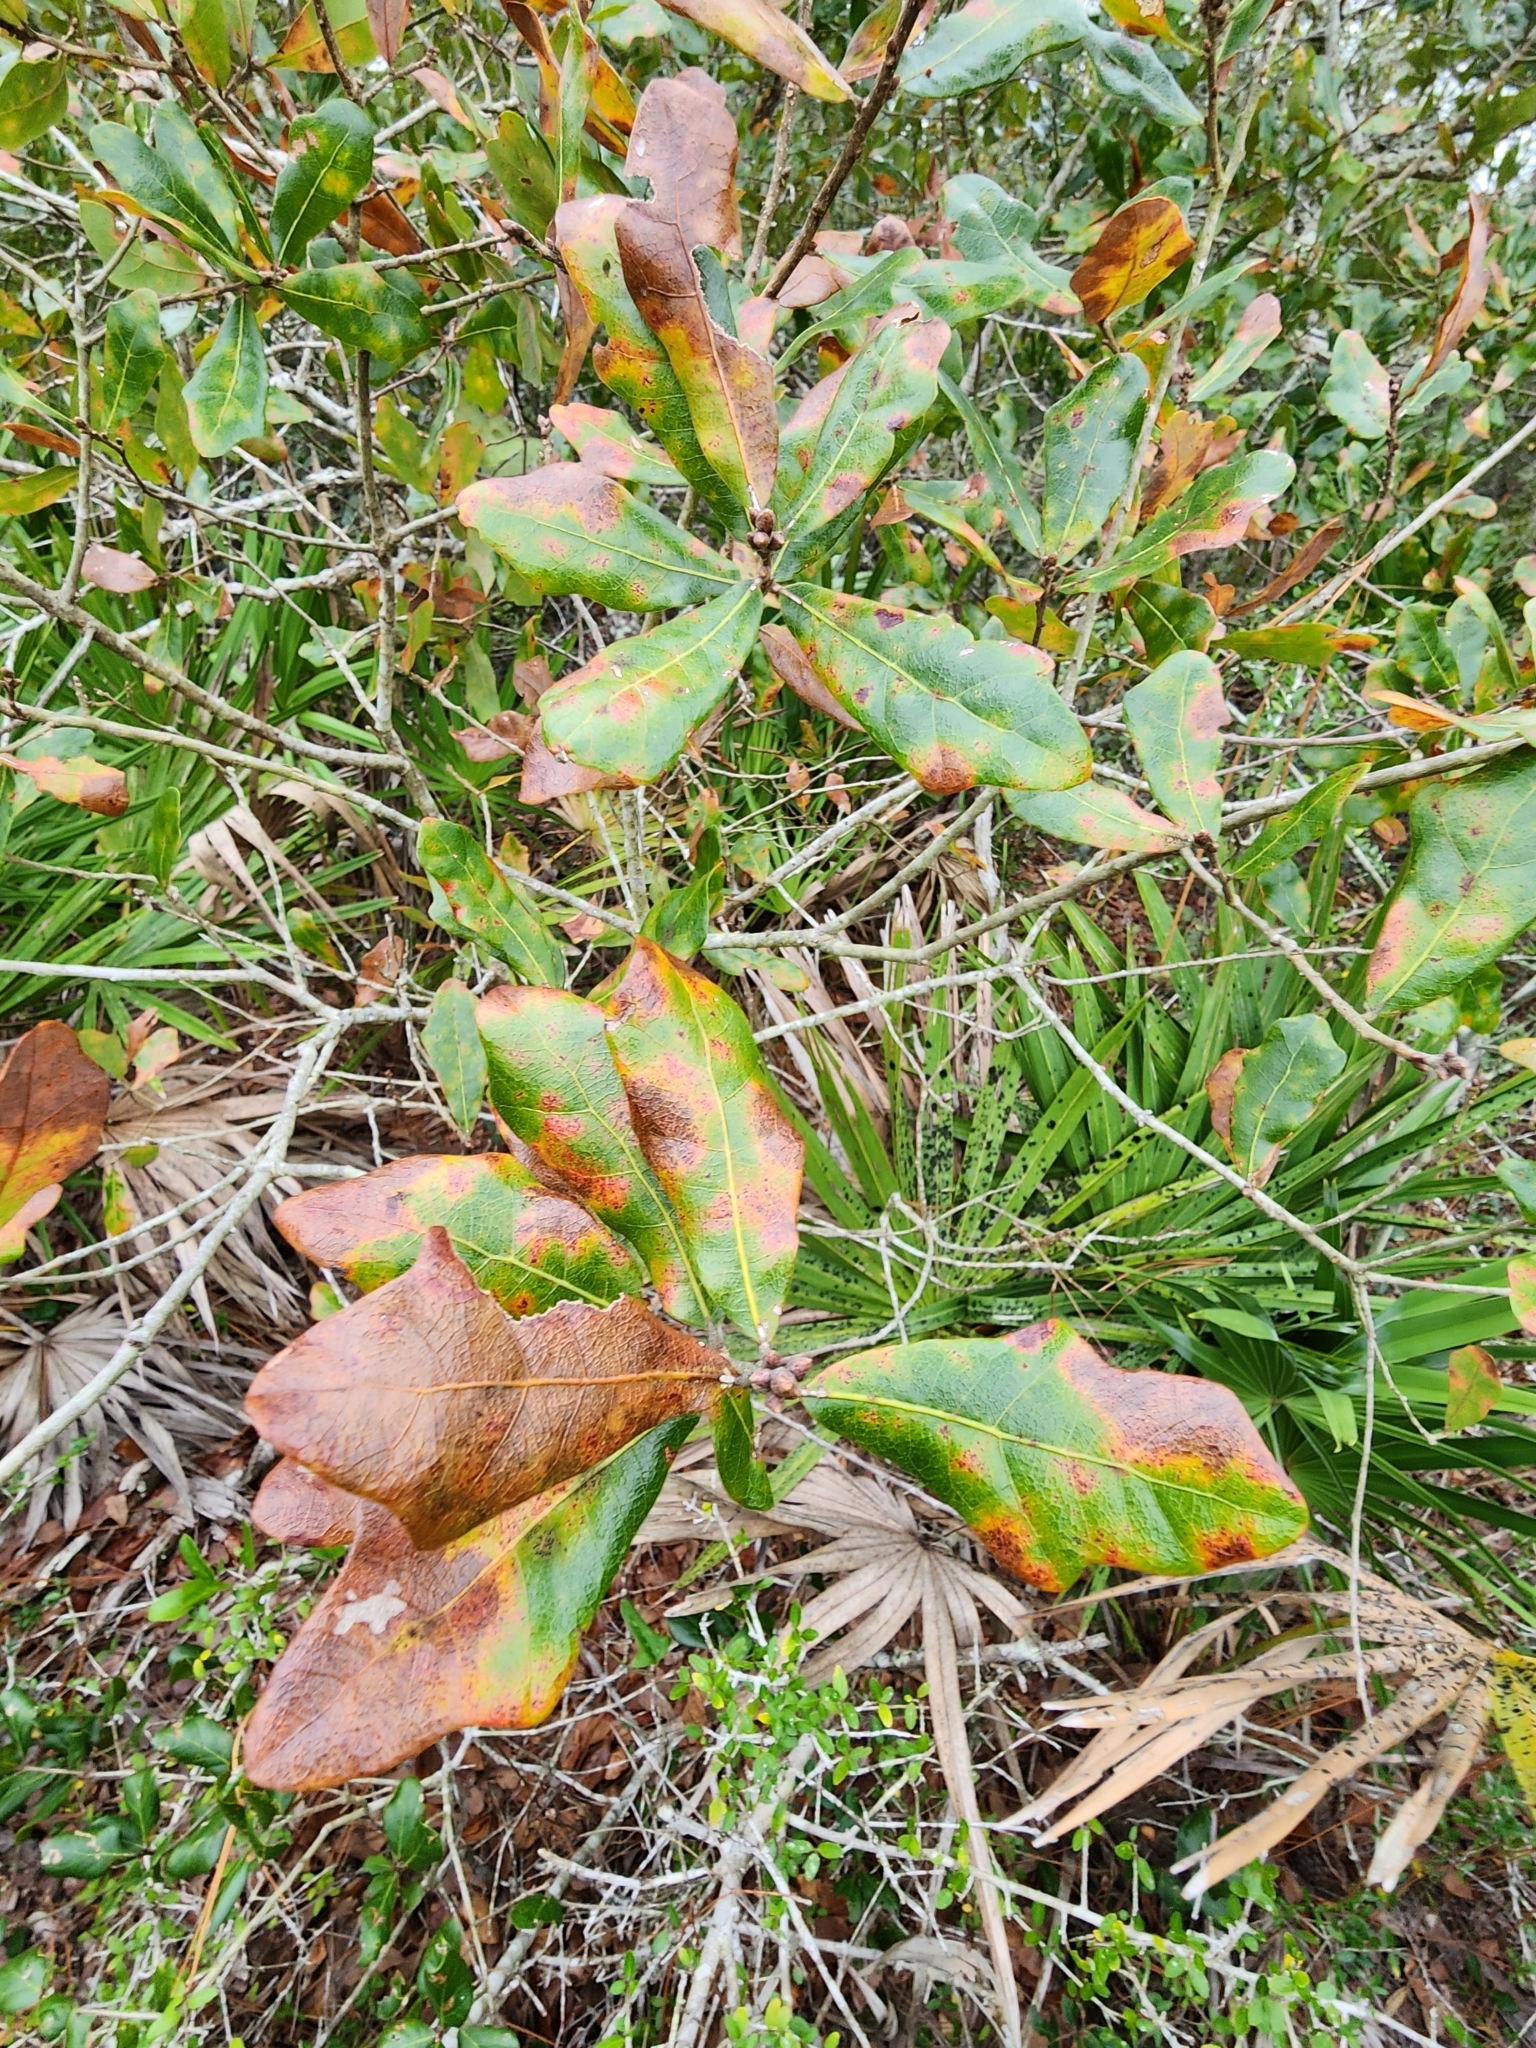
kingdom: Plantae
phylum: Tracheophyta
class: Magnoliopsida
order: Fagales
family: Fagaceae
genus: Quercus
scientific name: Quercus chapmanii
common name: Chapman oak
